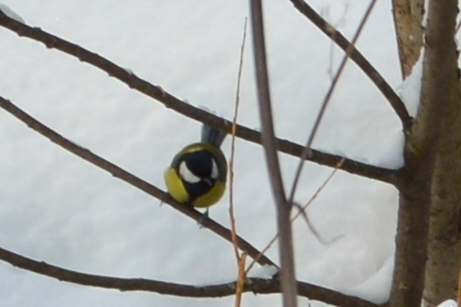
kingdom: Animalia
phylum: Chordata
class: Aves
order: Passeriformes
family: Paridae
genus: Parus
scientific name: Parus major
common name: Great tit
